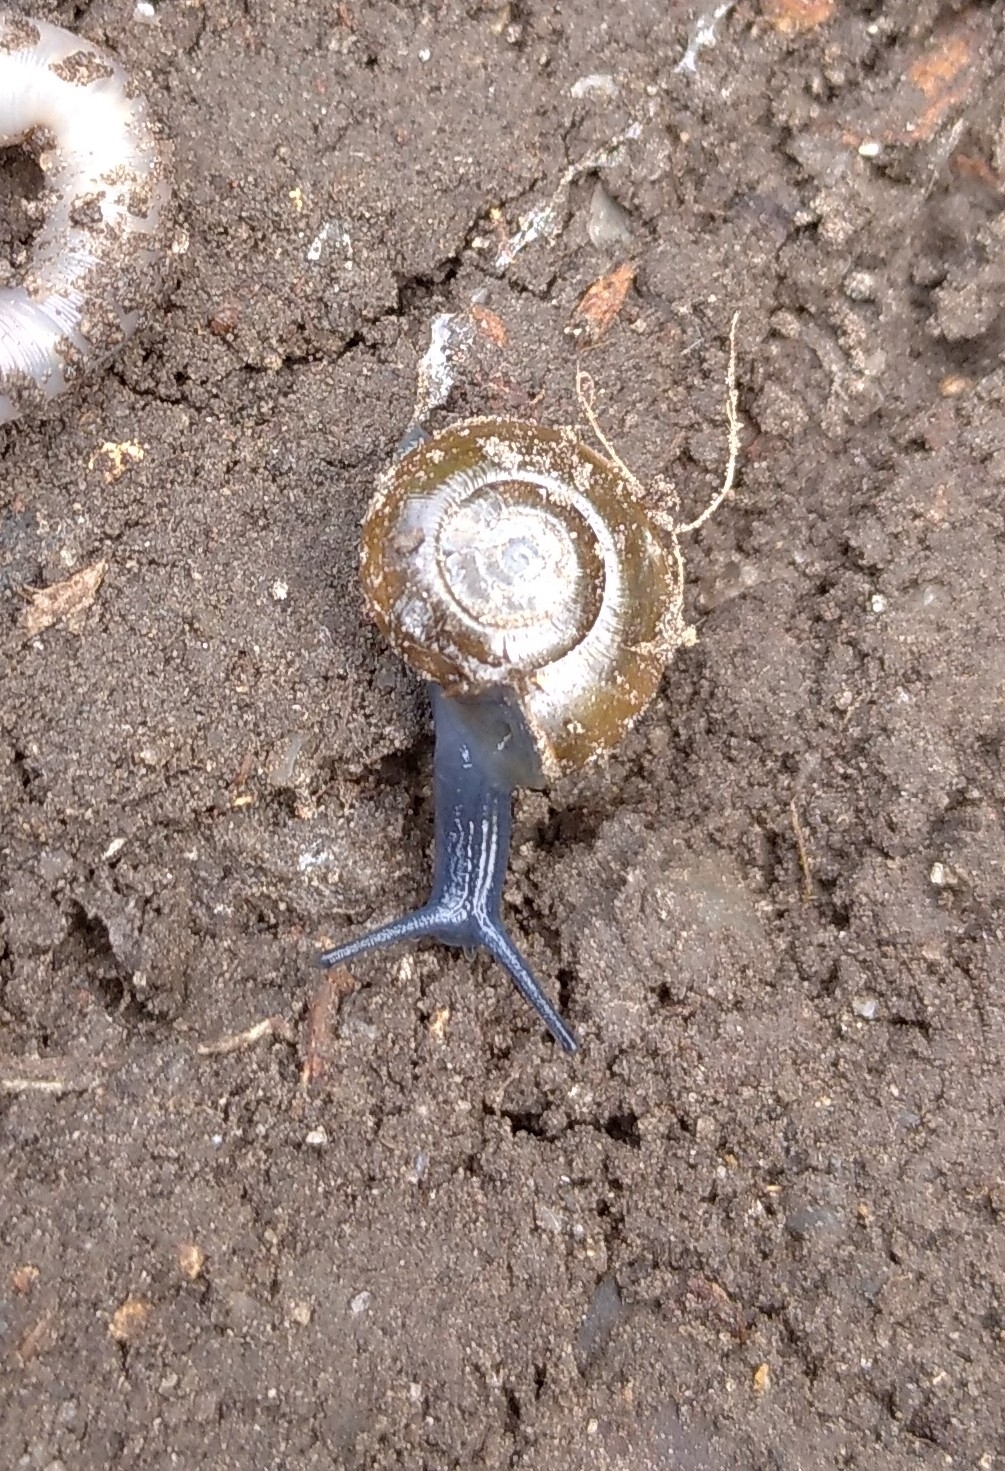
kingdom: Animalia
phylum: Mollusca
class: Gastropoda
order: Stylommatophora
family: Oxychilidae
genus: Oxychilus
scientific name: Oxychilus draparnaudi
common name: Draparnaud's glass snail
